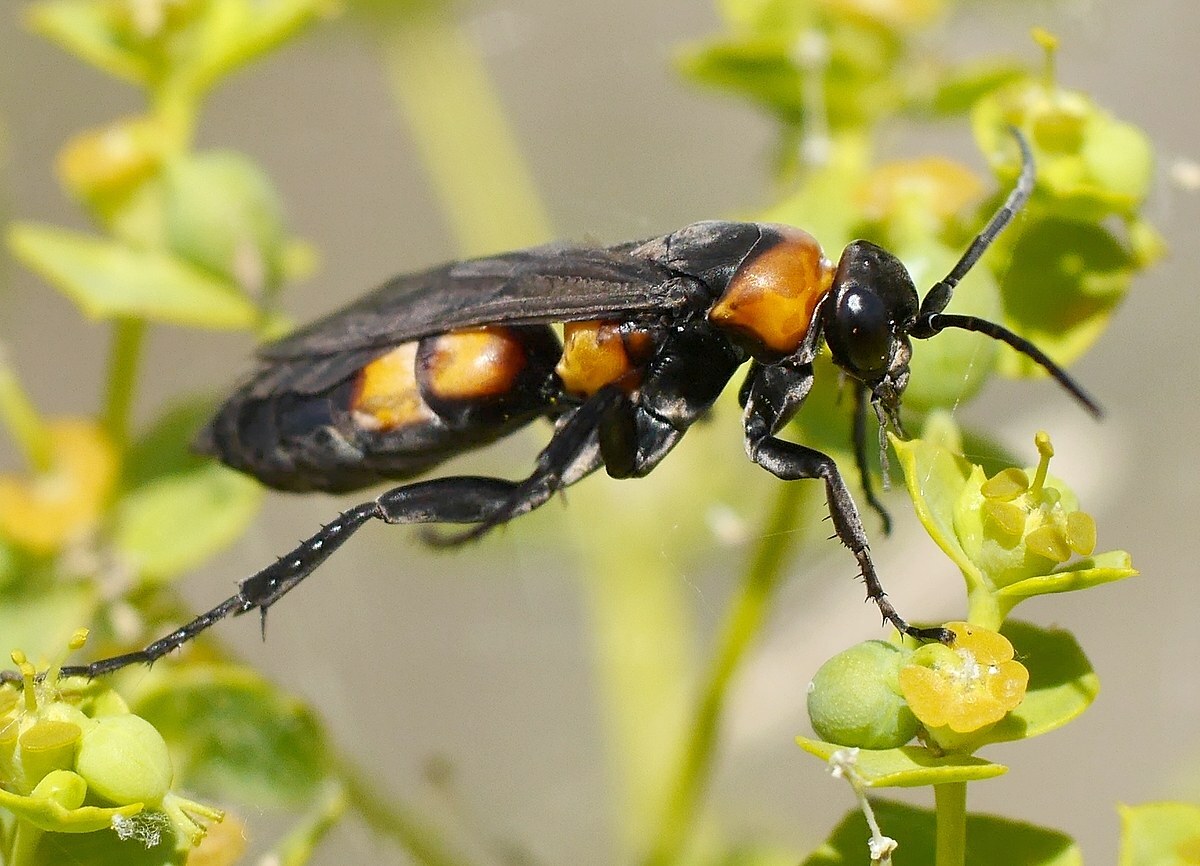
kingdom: Animalia
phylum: Arthropoda
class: Insecta
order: Hymenoptera
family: Pompilidae
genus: Eoferreola
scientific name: Eoferreola erythraea
